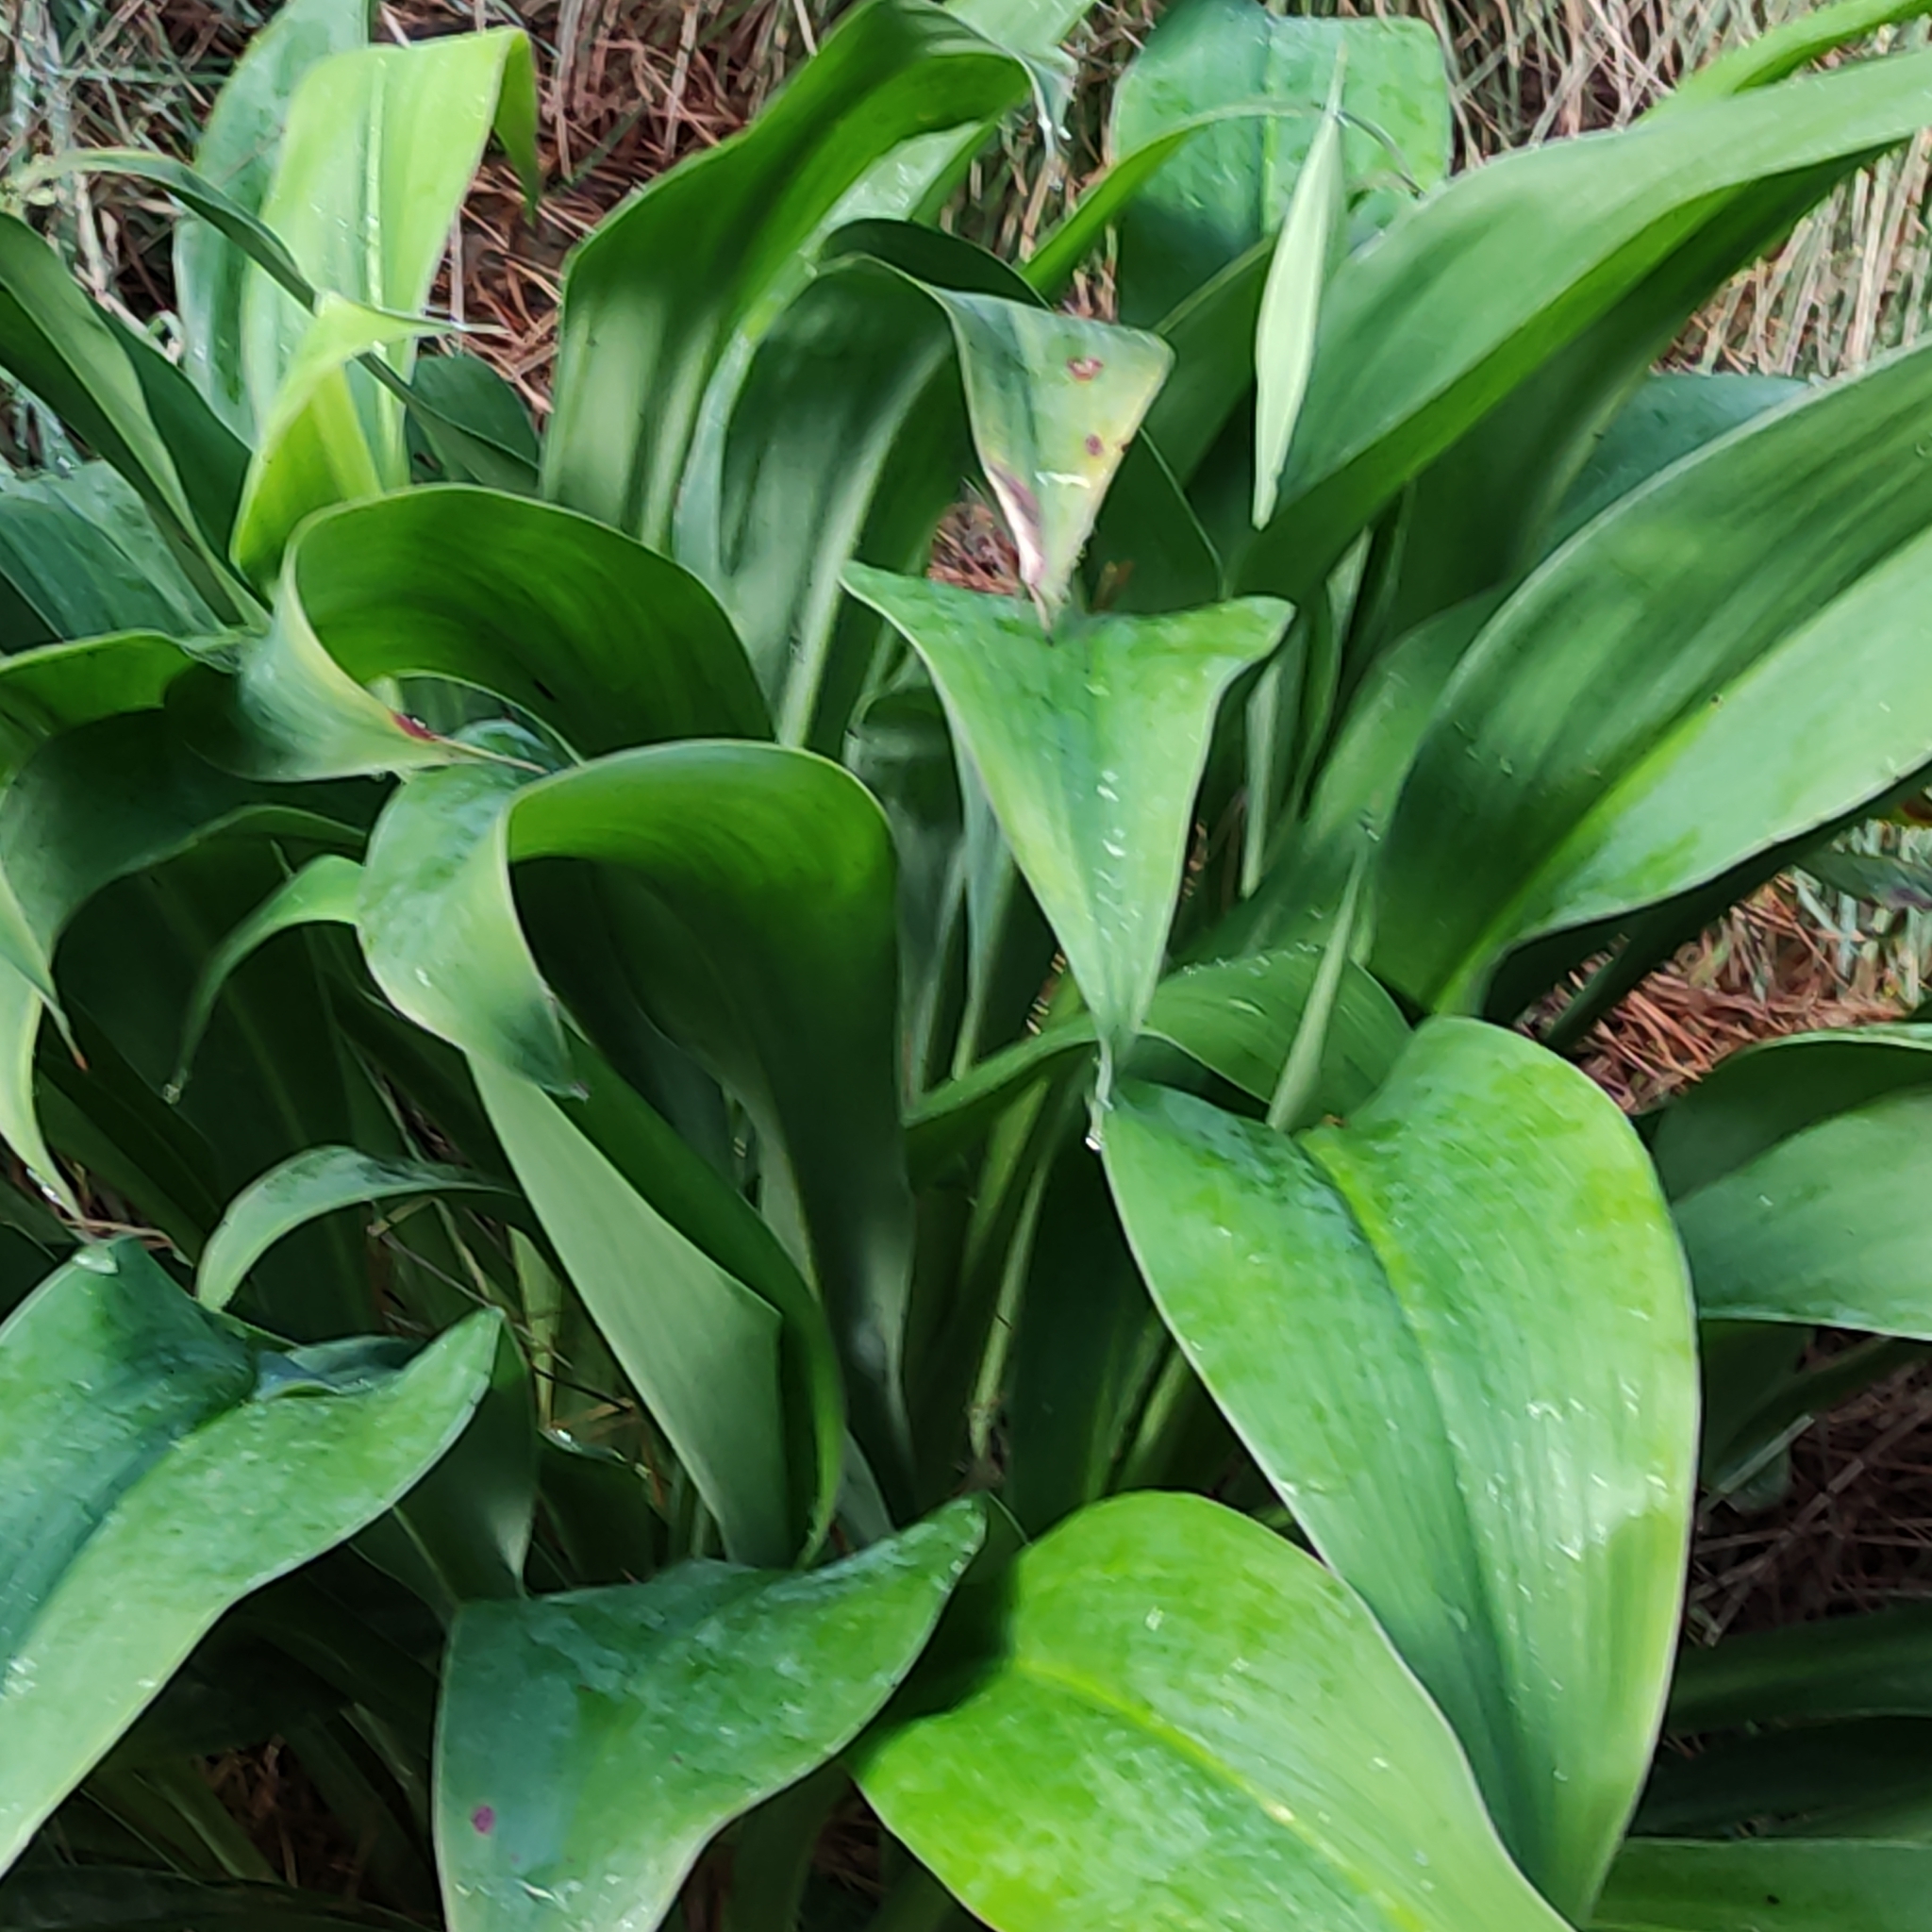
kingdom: Plantae
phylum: Tracheophyta
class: Liliopsida
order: Asparagales
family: Asparagaceae
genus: Arthropodium
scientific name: Arthropodium cirratum
